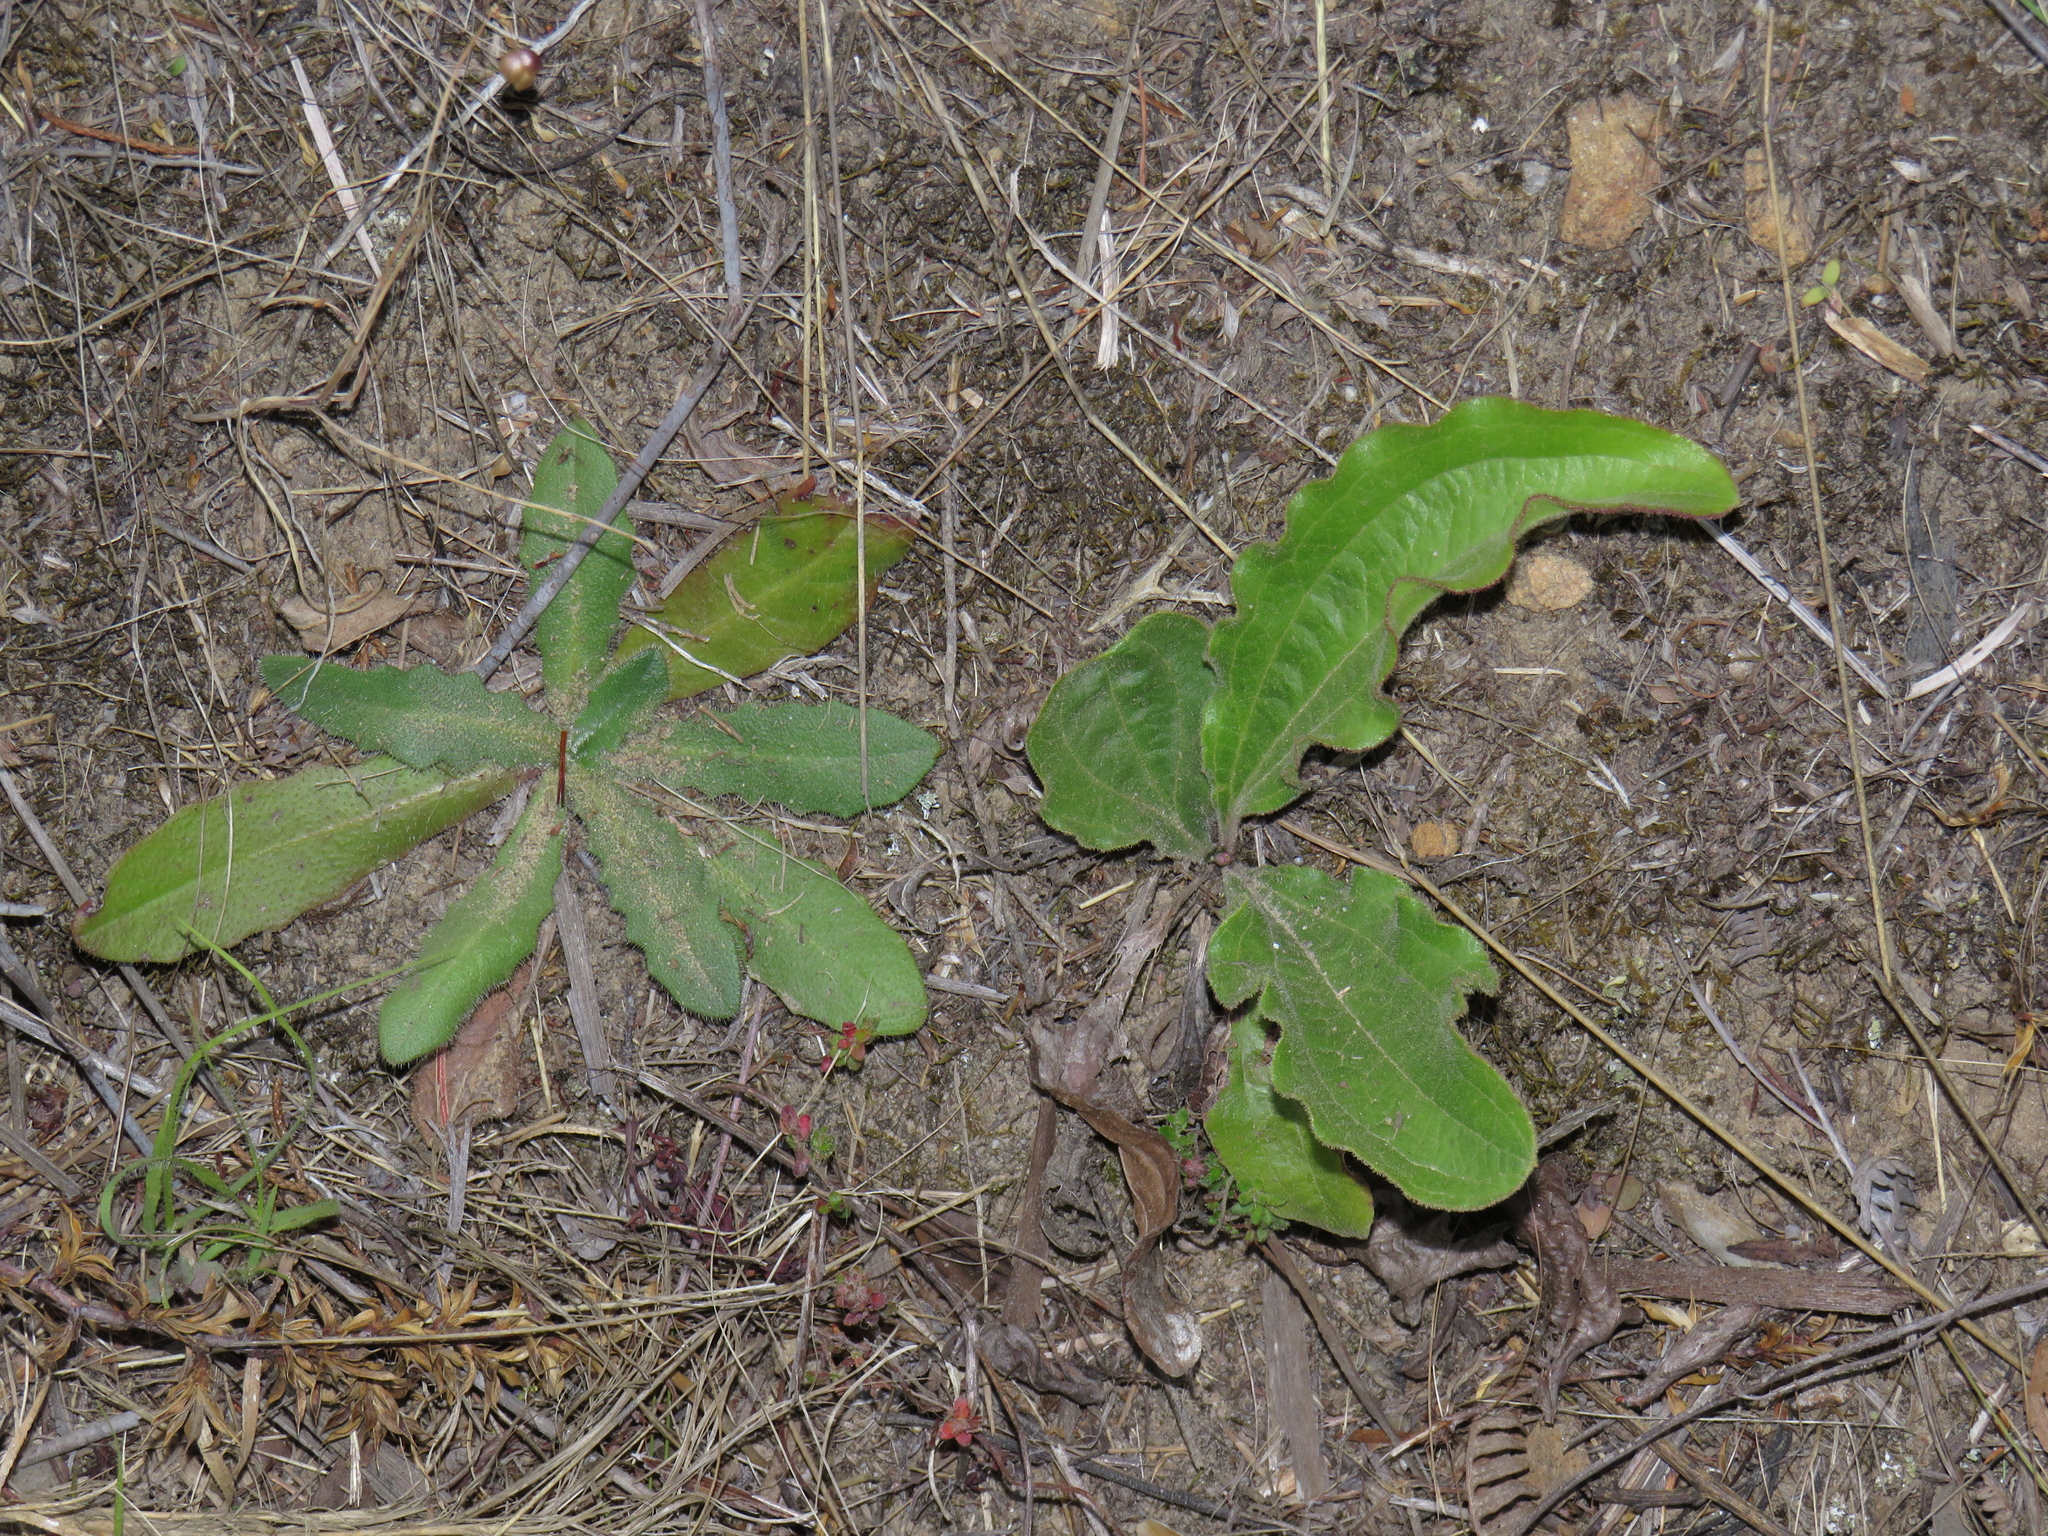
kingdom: Plantae
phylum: Tracheophyta
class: Magnoliopsida
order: Asterales
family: Asteraceae
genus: Hypochaeris
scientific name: Hypochaeris radicata
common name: Flatweed
